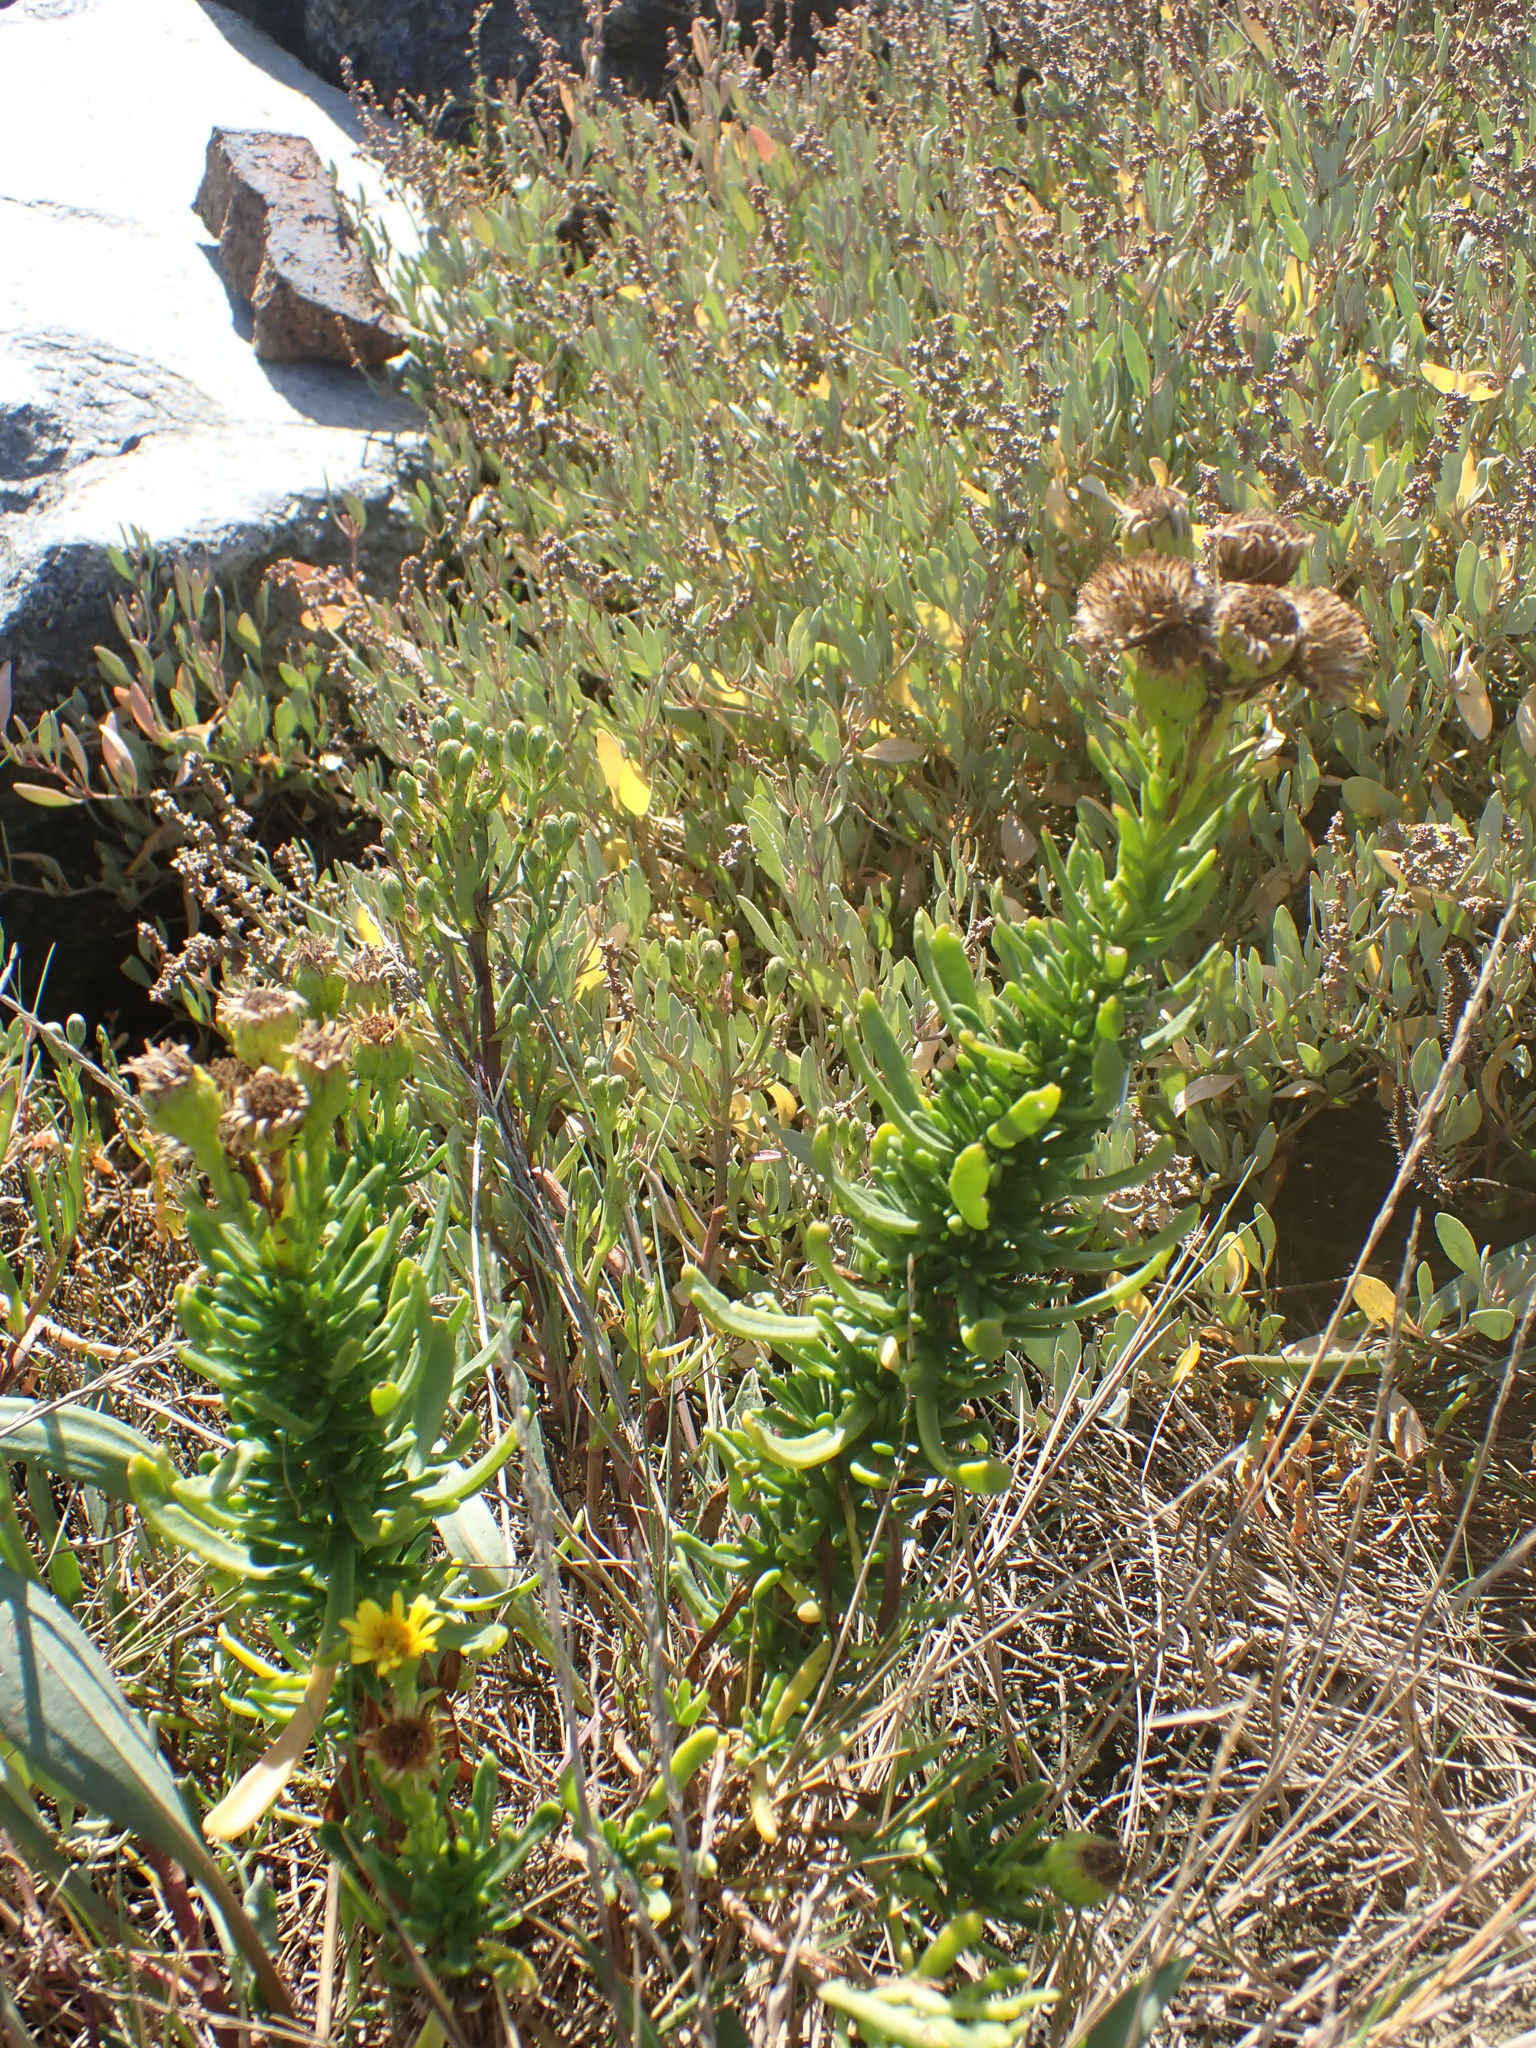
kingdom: Plantae
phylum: Tracheophyta
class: Magnoliopsida
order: Asterales
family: Asteraceae
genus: Limbarda
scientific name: Limbarda crithmoides
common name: Golden samphire
